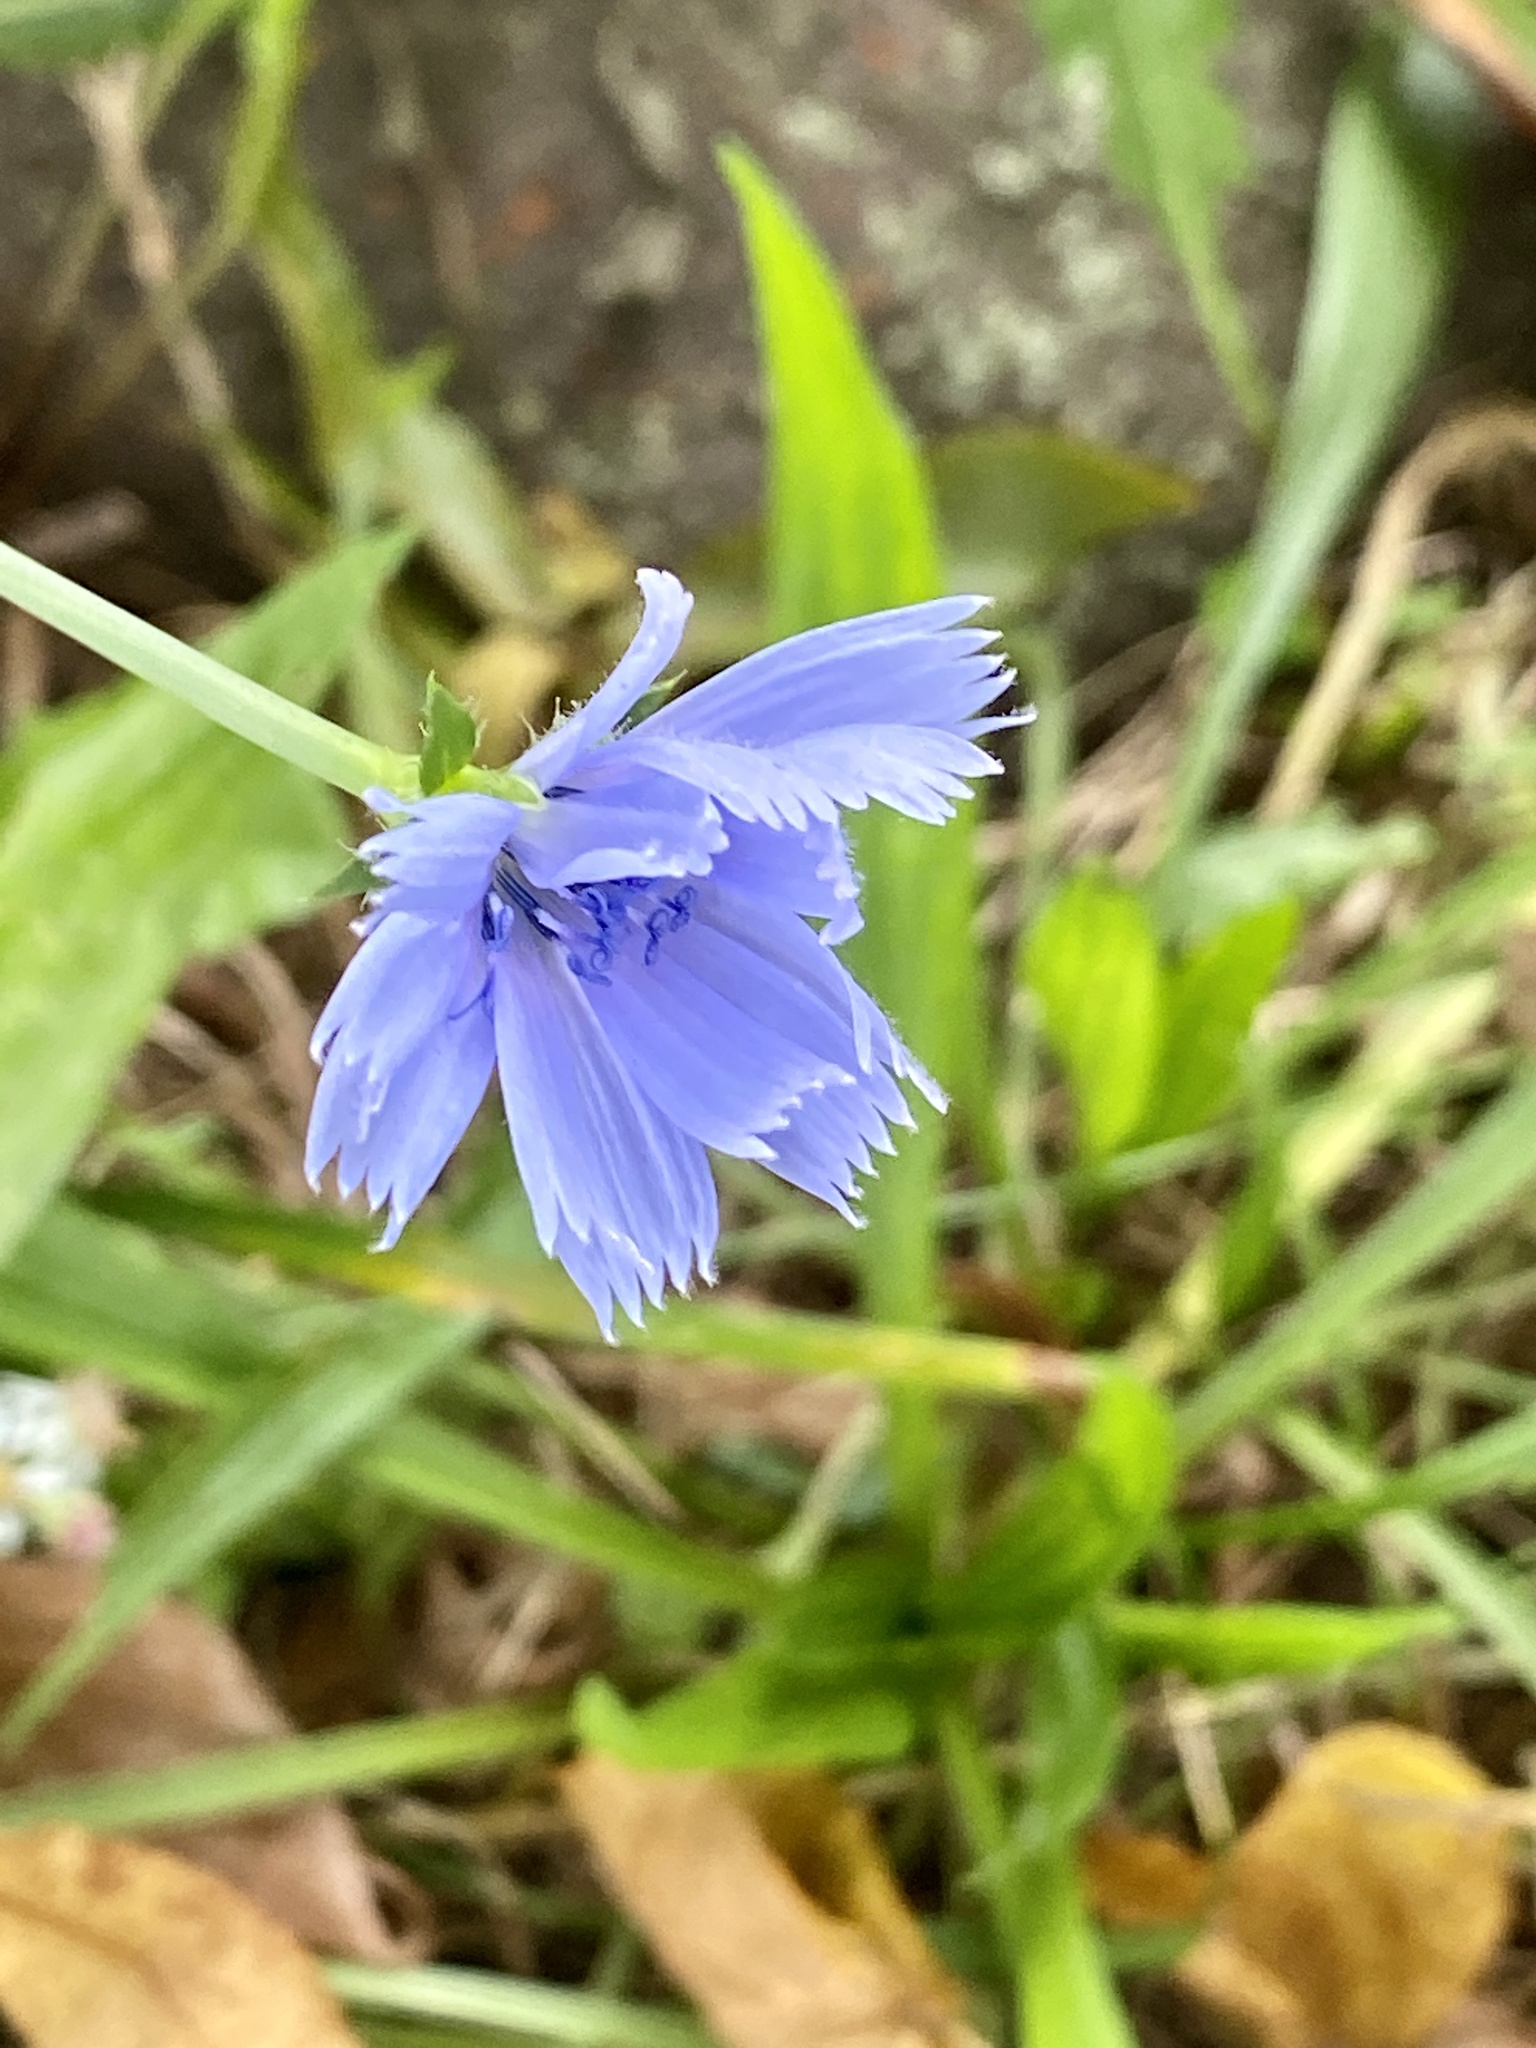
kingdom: Plantae
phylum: Tracheophyta
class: Magnoliopsida
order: Asterales
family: Asteraceae
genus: Cichorium
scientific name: Cichorium intybus
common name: Chicory
